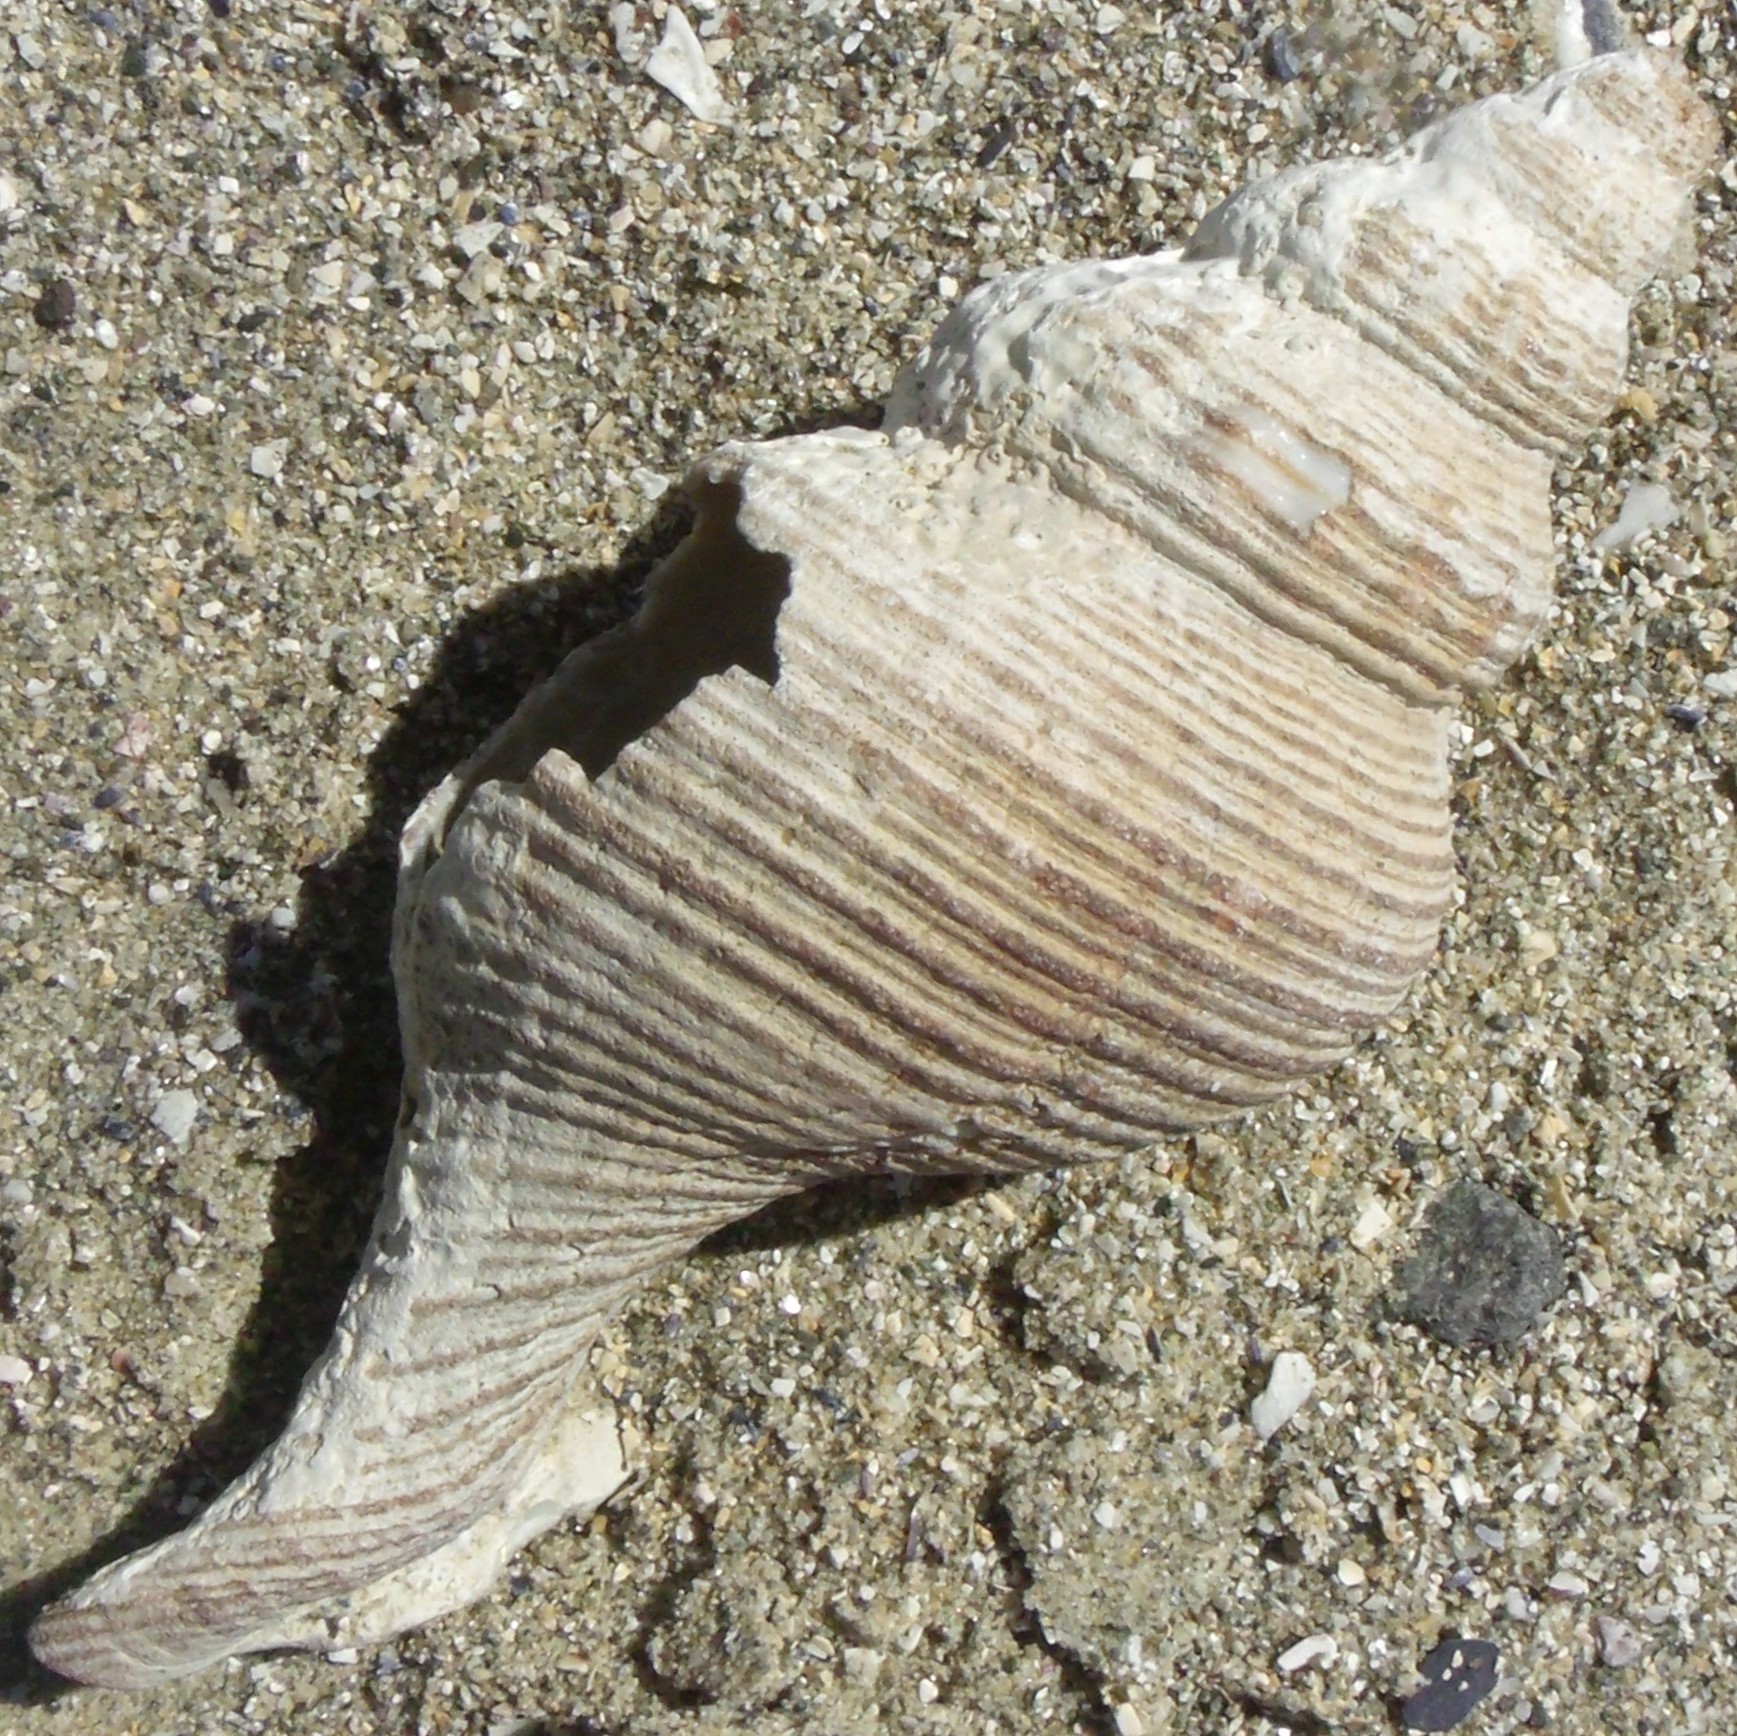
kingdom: Animalia
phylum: Mollusca
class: Gastropoda
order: Neogastropoda
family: Austrosiphonidae
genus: Penion
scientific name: Penion sulcatus
